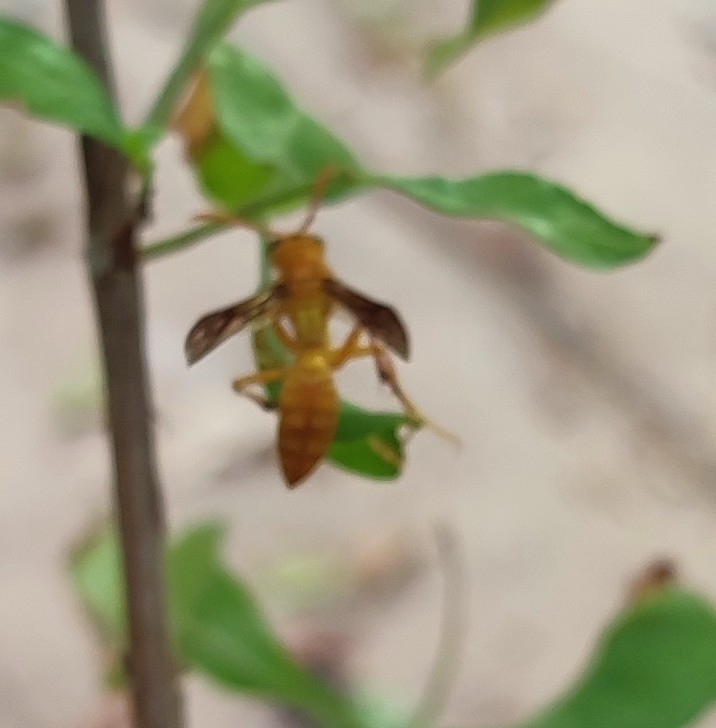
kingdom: Animalia
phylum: Arthropoda
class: Insecta
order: Hymenoptera
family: Eumenidae
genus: Polistes
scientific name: Polistes wattii
